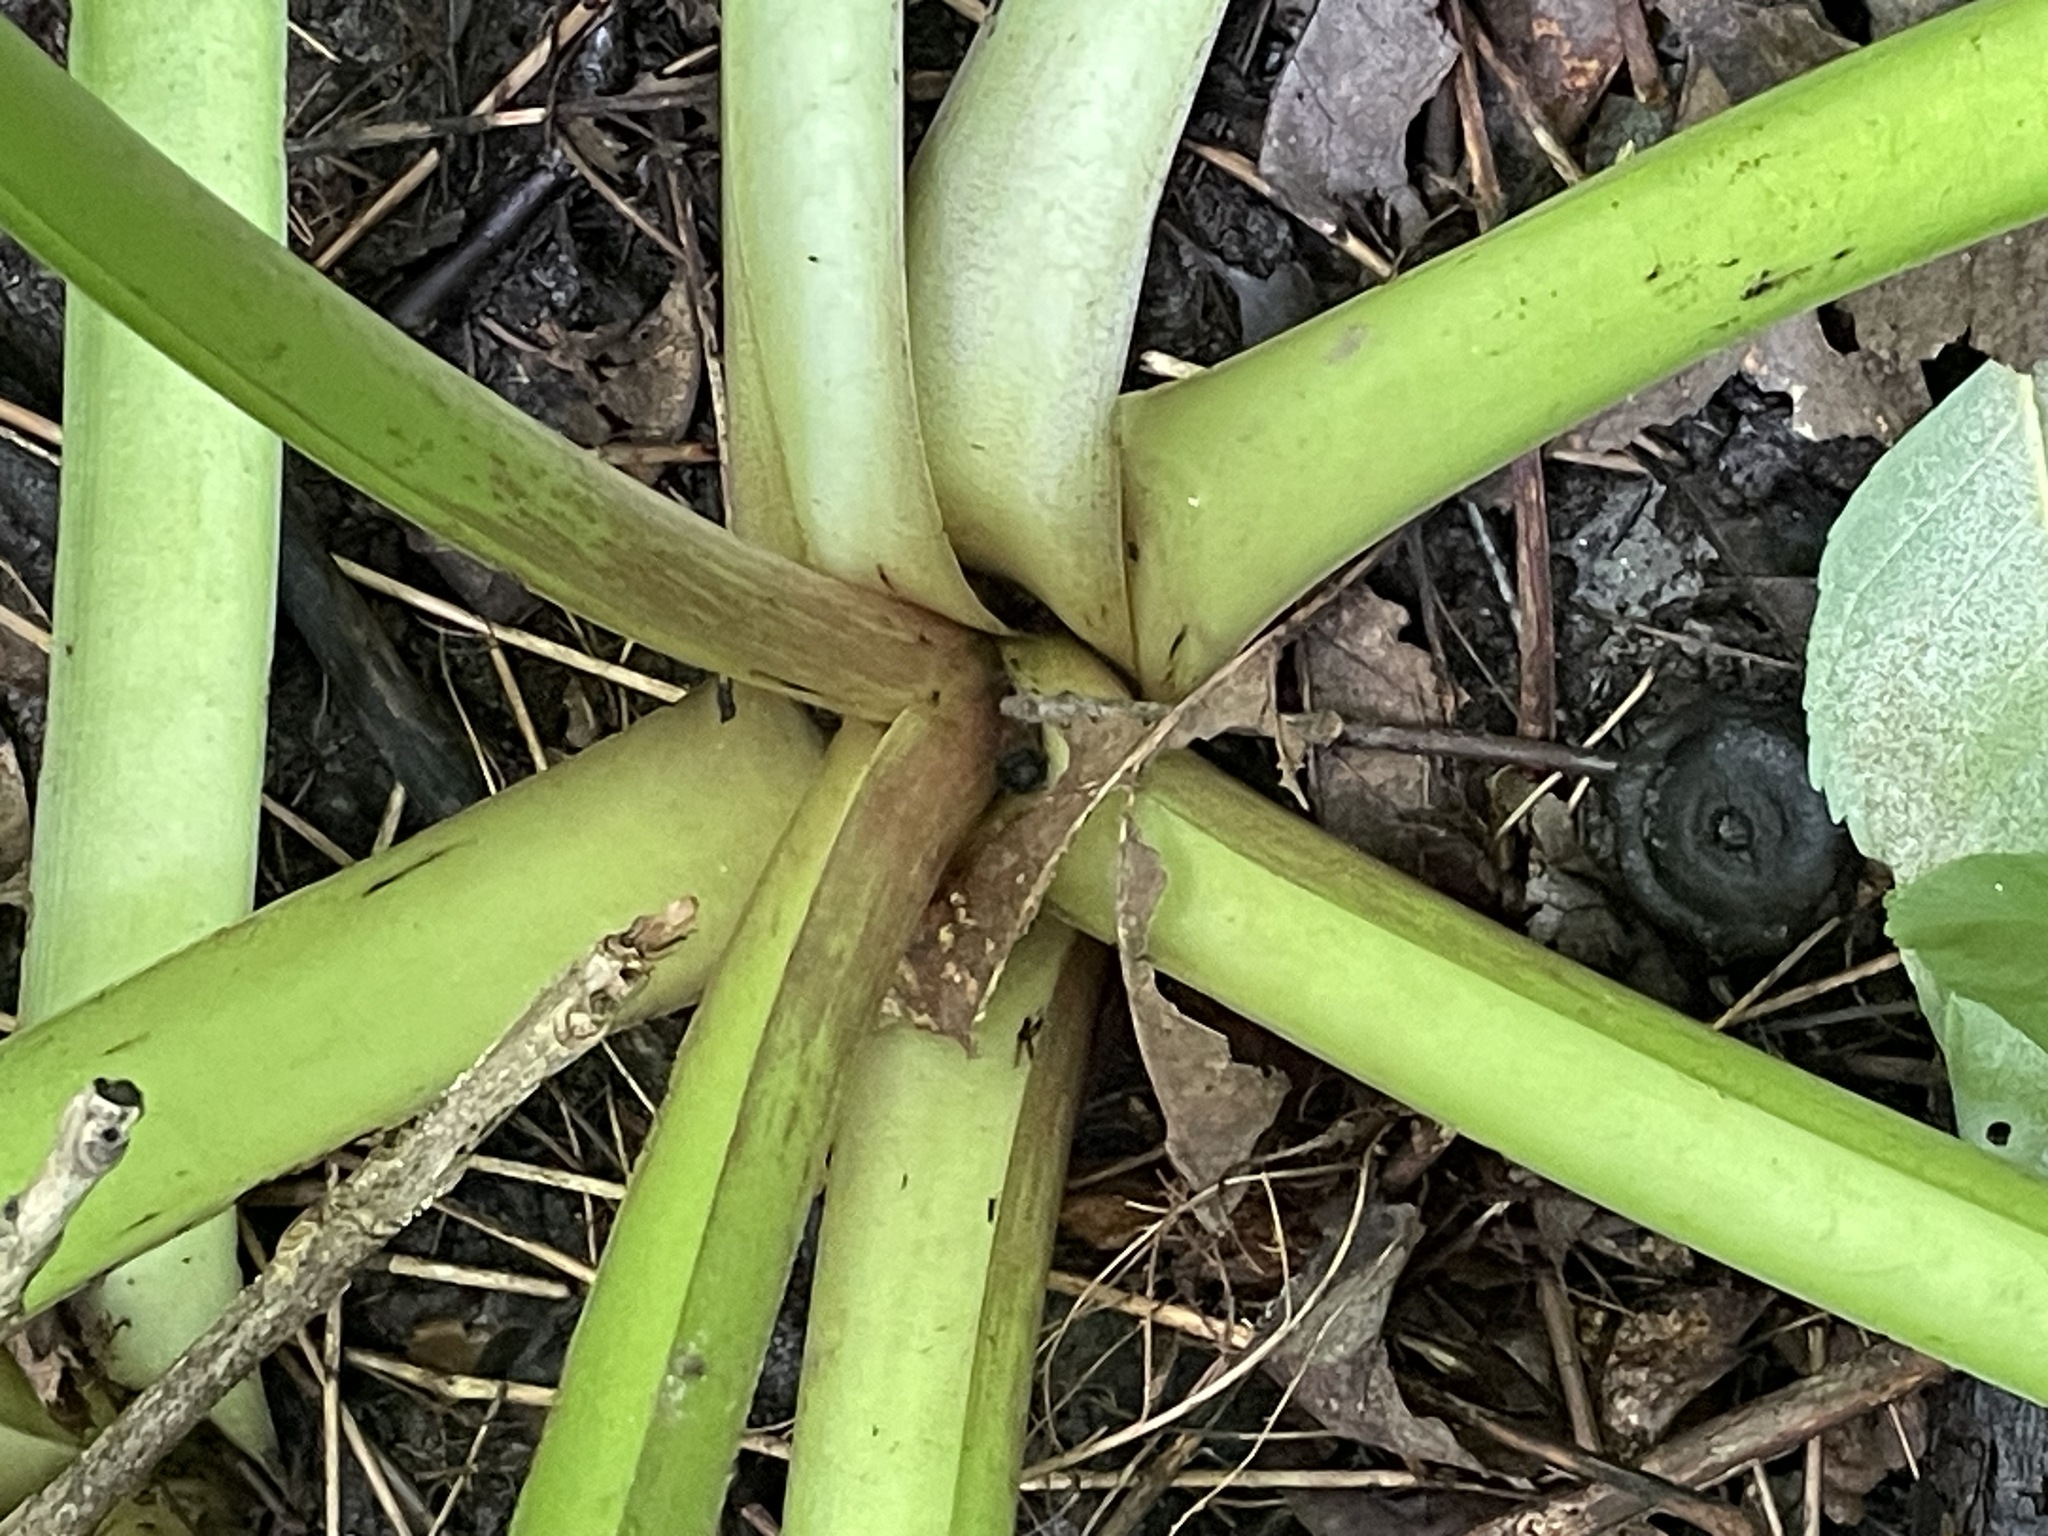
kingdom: Plantae
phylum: Tracheophyta
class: Liliopsida
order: Alismatales
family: Araceae
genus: Symplocarpus
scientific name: Symplocarpus foetidus
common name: Eastern skunk cabbage
